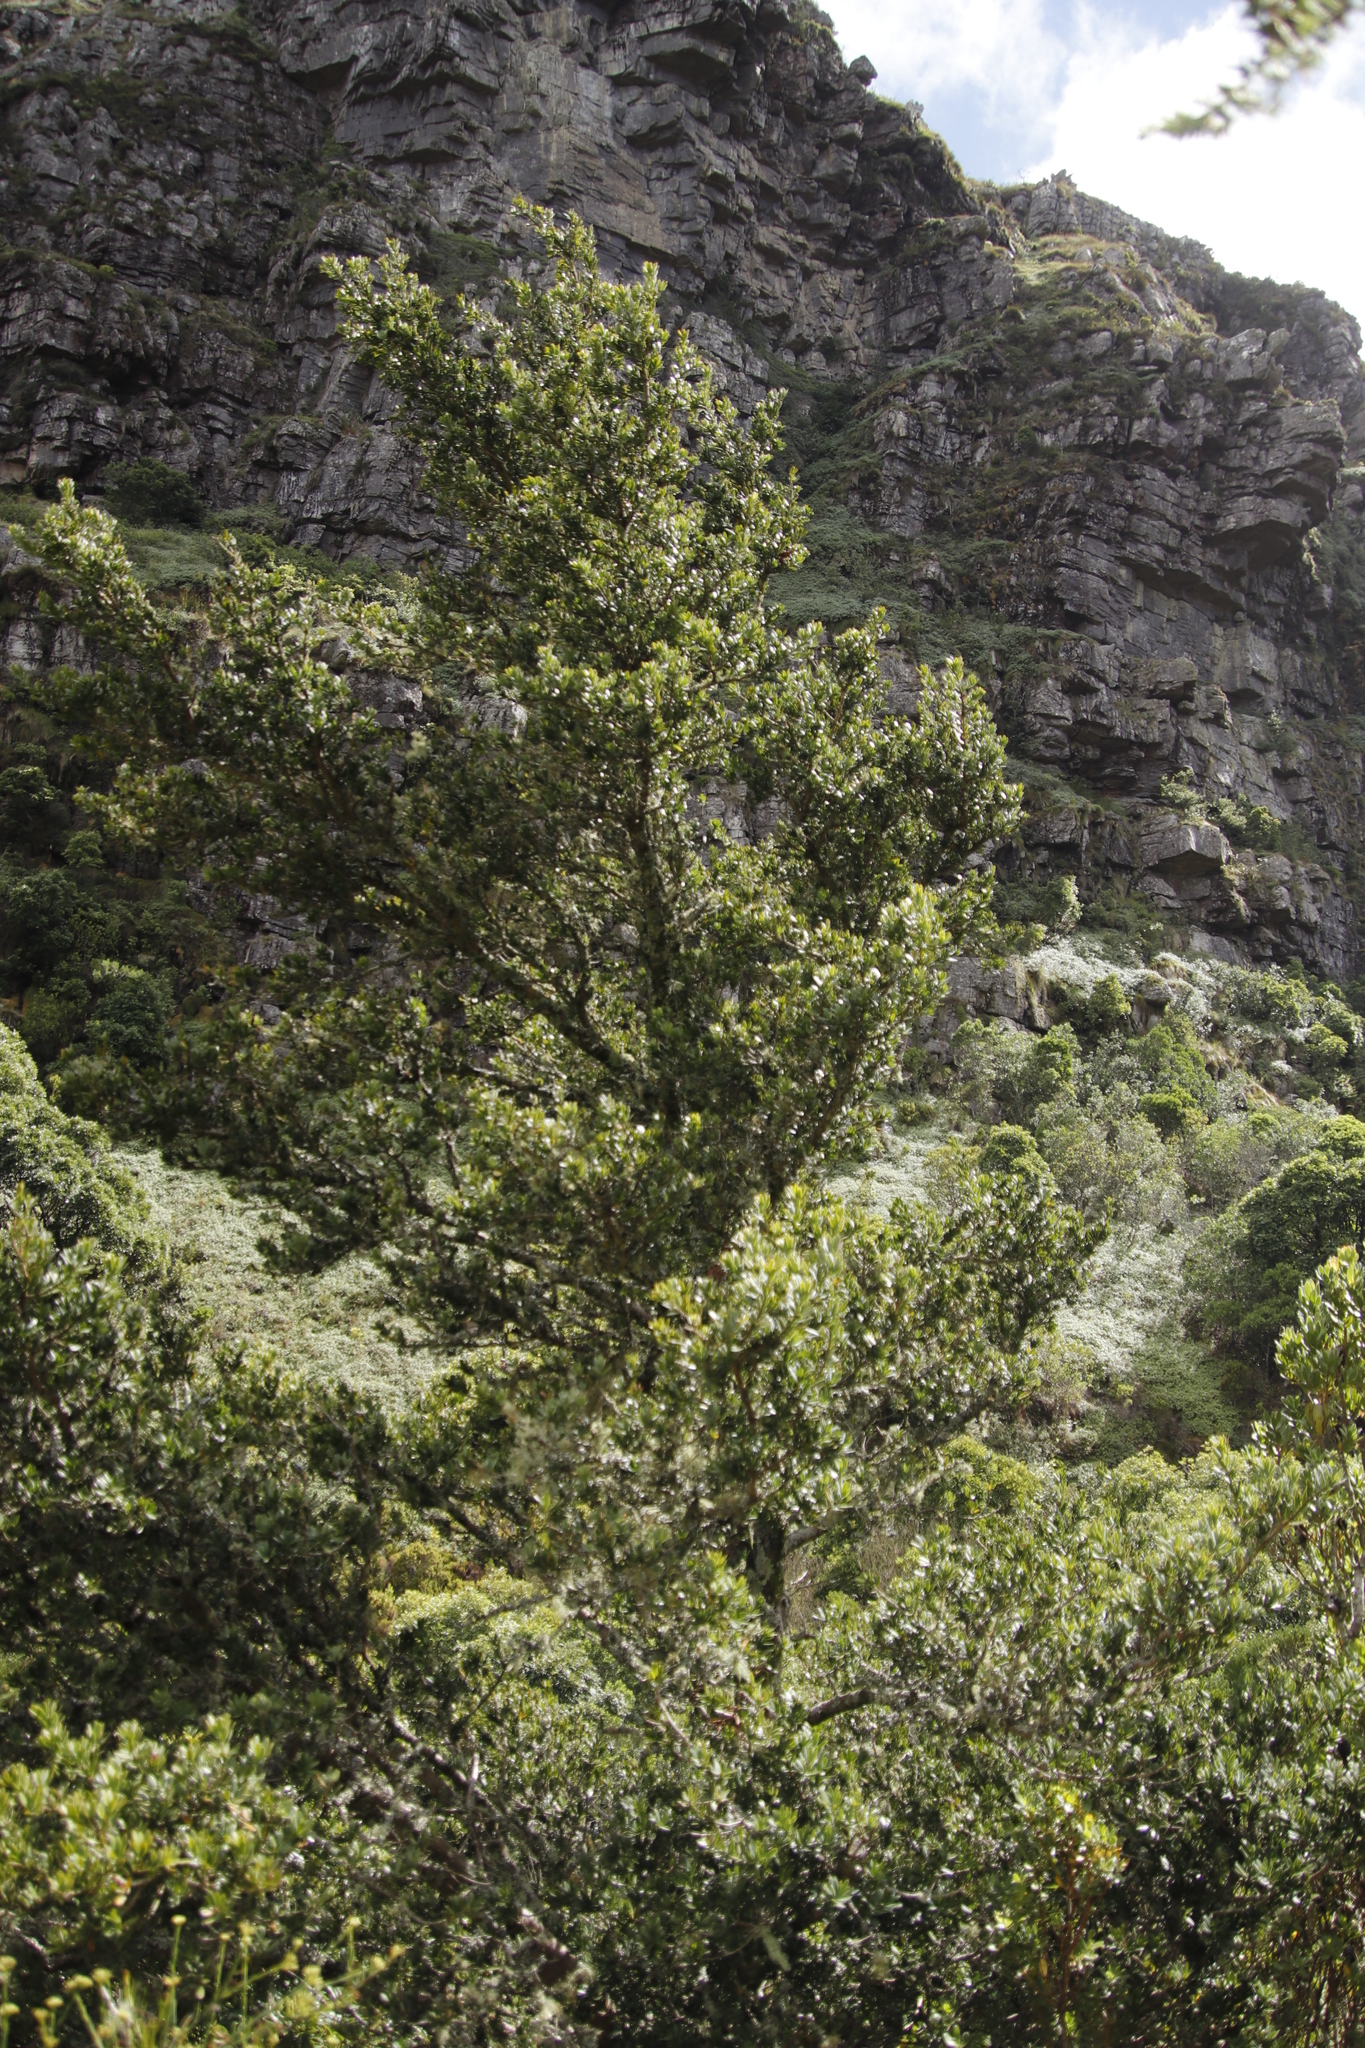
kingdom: Plantae
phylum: Tracheophyta
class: Pinopsida
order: Pinales
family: Podocarpaceae
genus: Podocarpus
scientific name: Podocarpus latifolius
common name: True yellowwood
